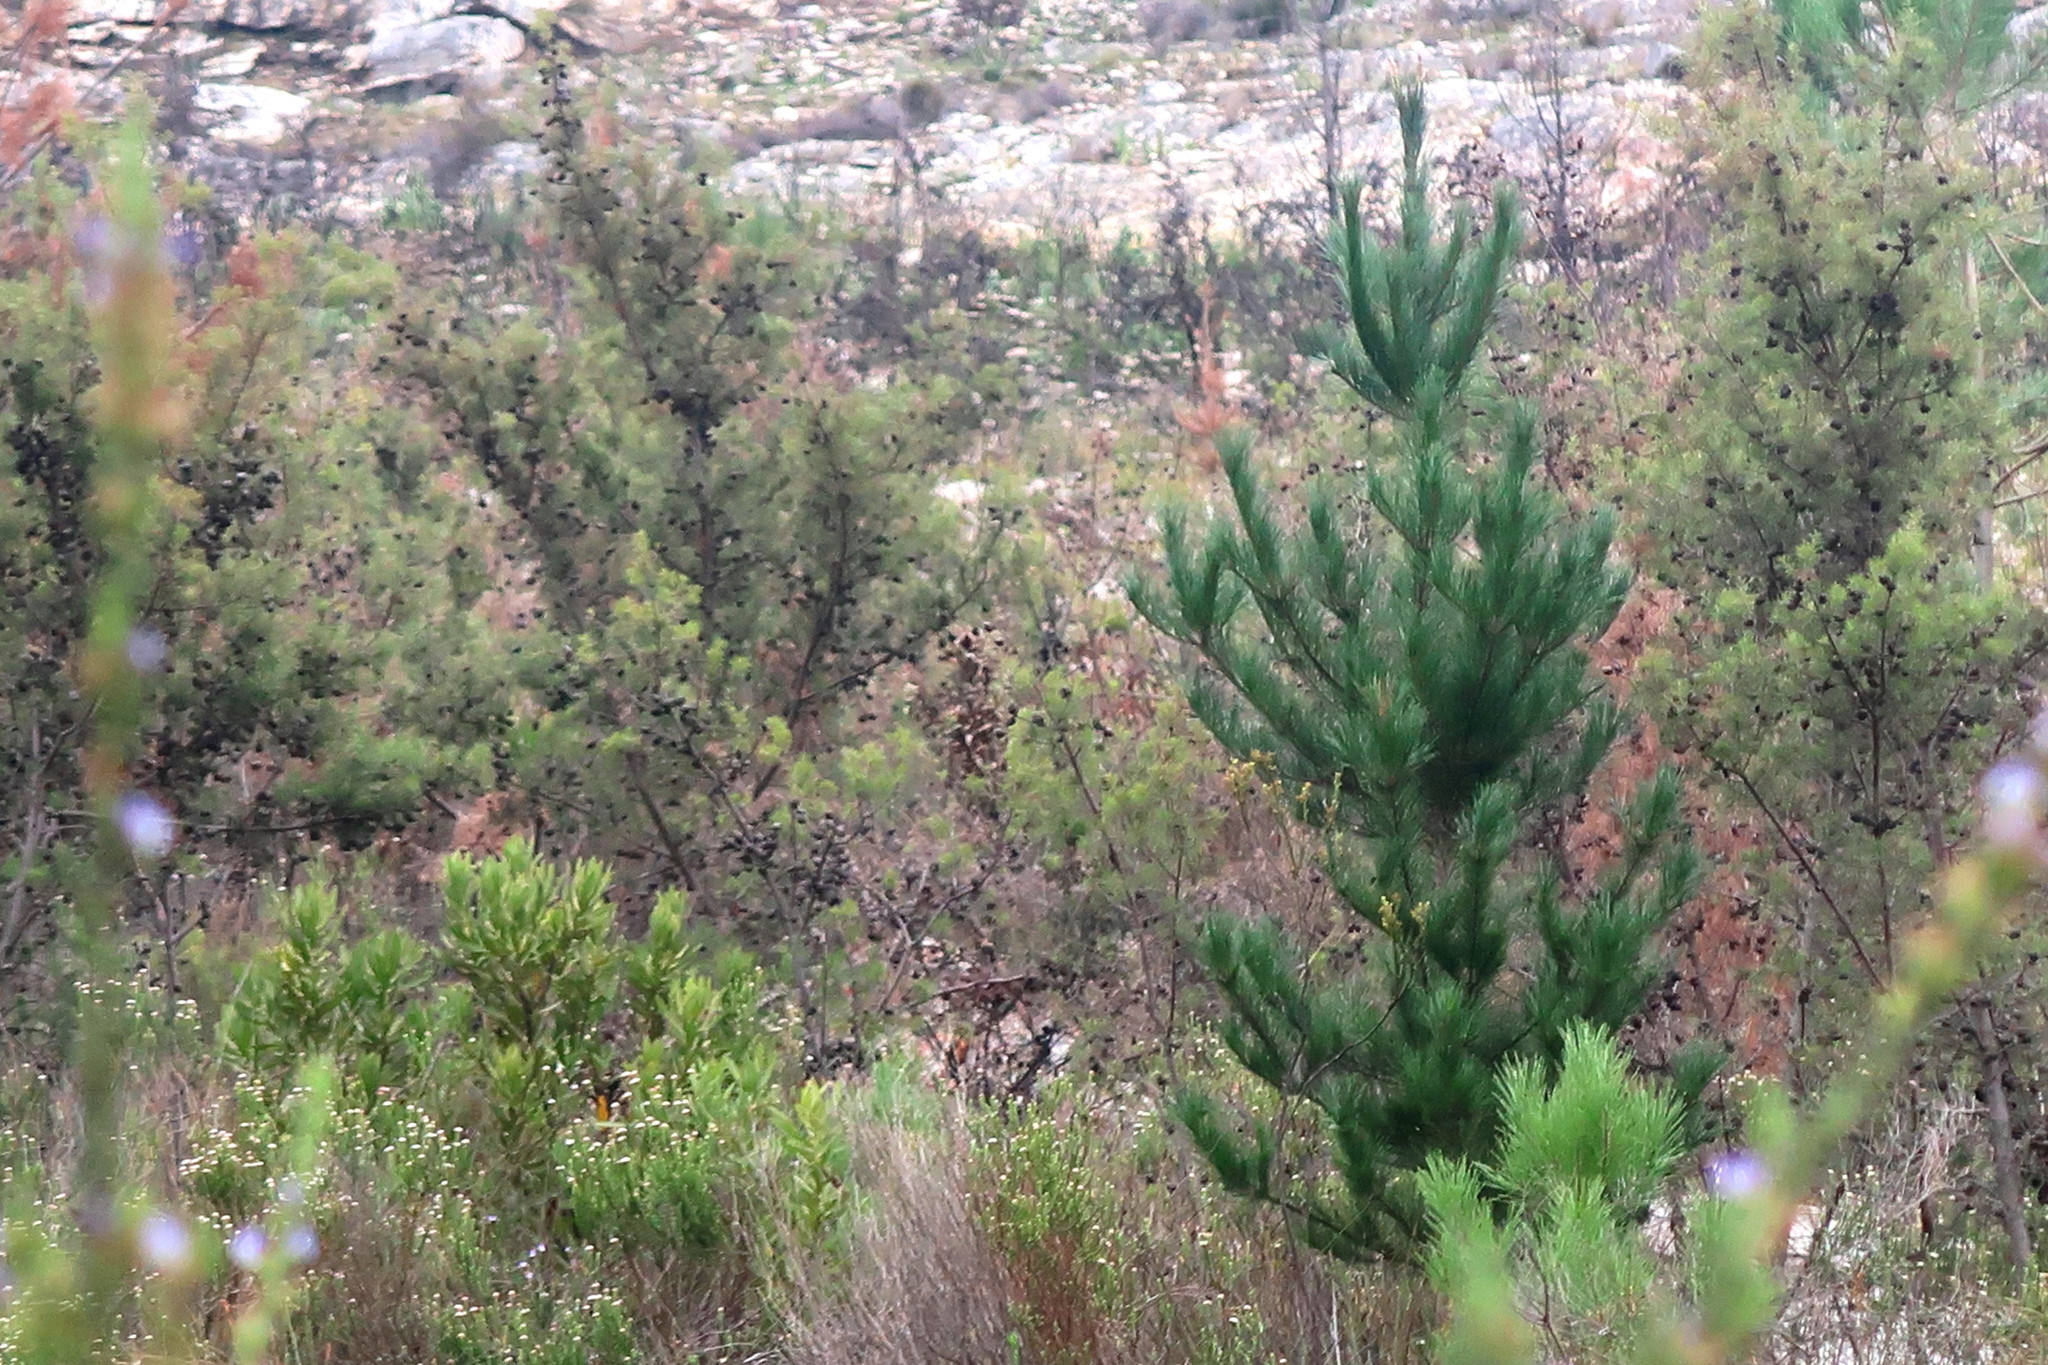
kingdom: Plantae
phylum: Tracheophyta
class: Magnoliopsida
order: Proteales
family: Proteaceae
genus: Hakea
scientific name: Hakea sericea
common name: Needle bush
